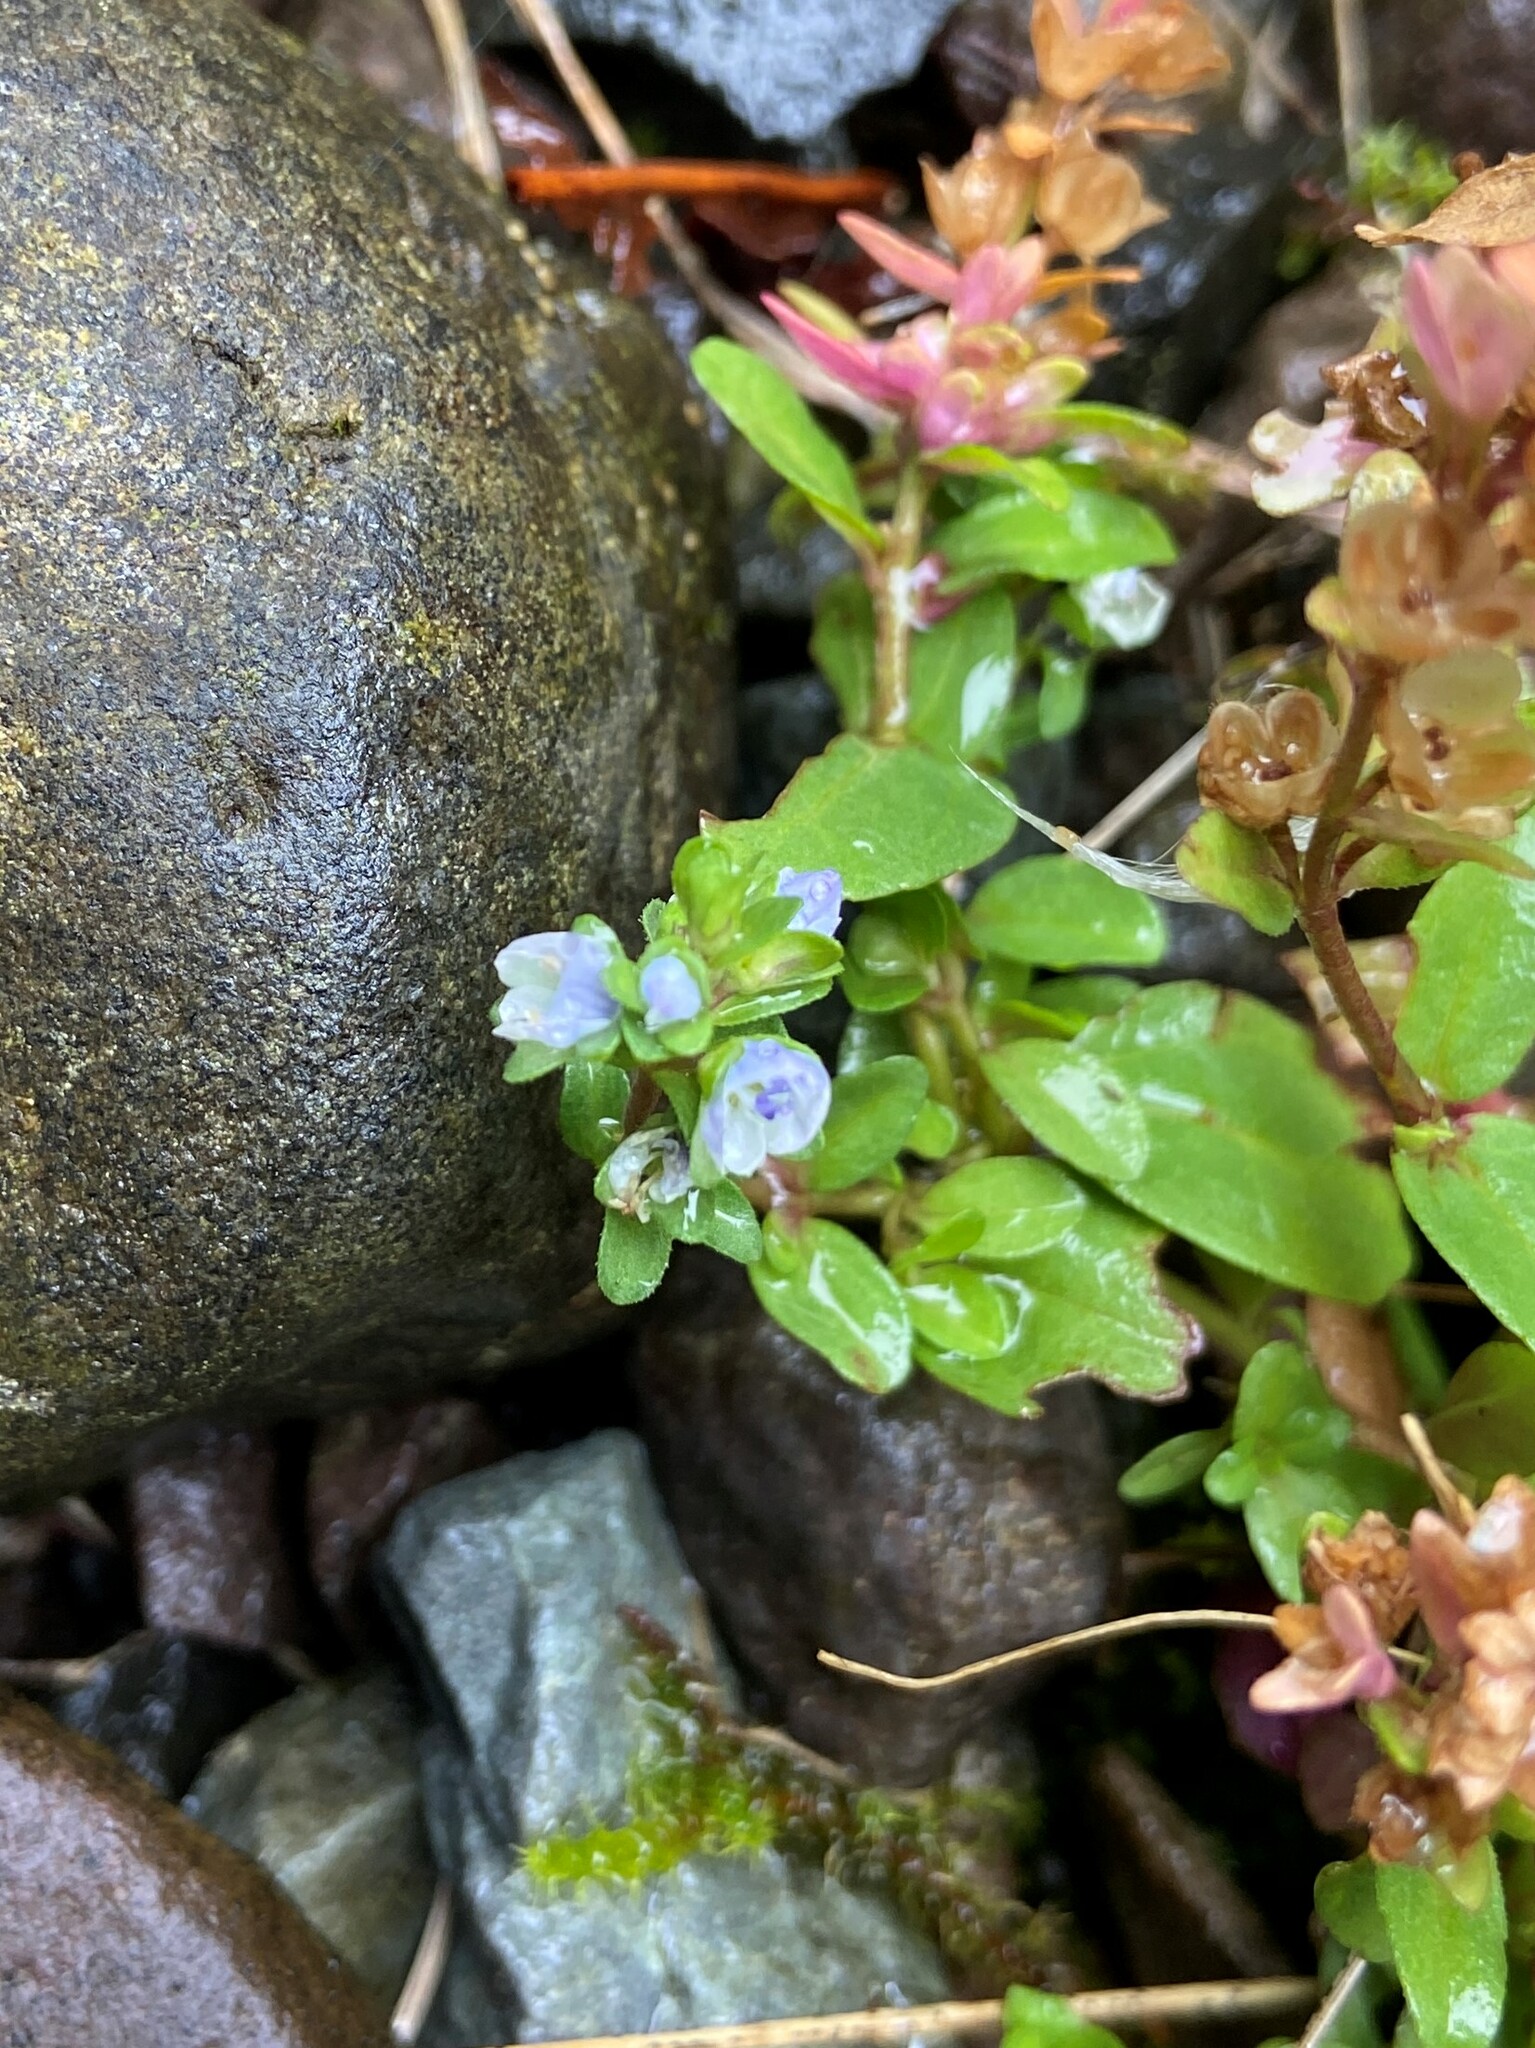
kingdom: Plantae
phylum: Tracheophyta
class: Magnoliopsida
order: Lamiales
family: Plantaginaceae
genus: Veronica
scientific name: Veronica serpyllifolia
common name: Thyme-leaved speedwell
